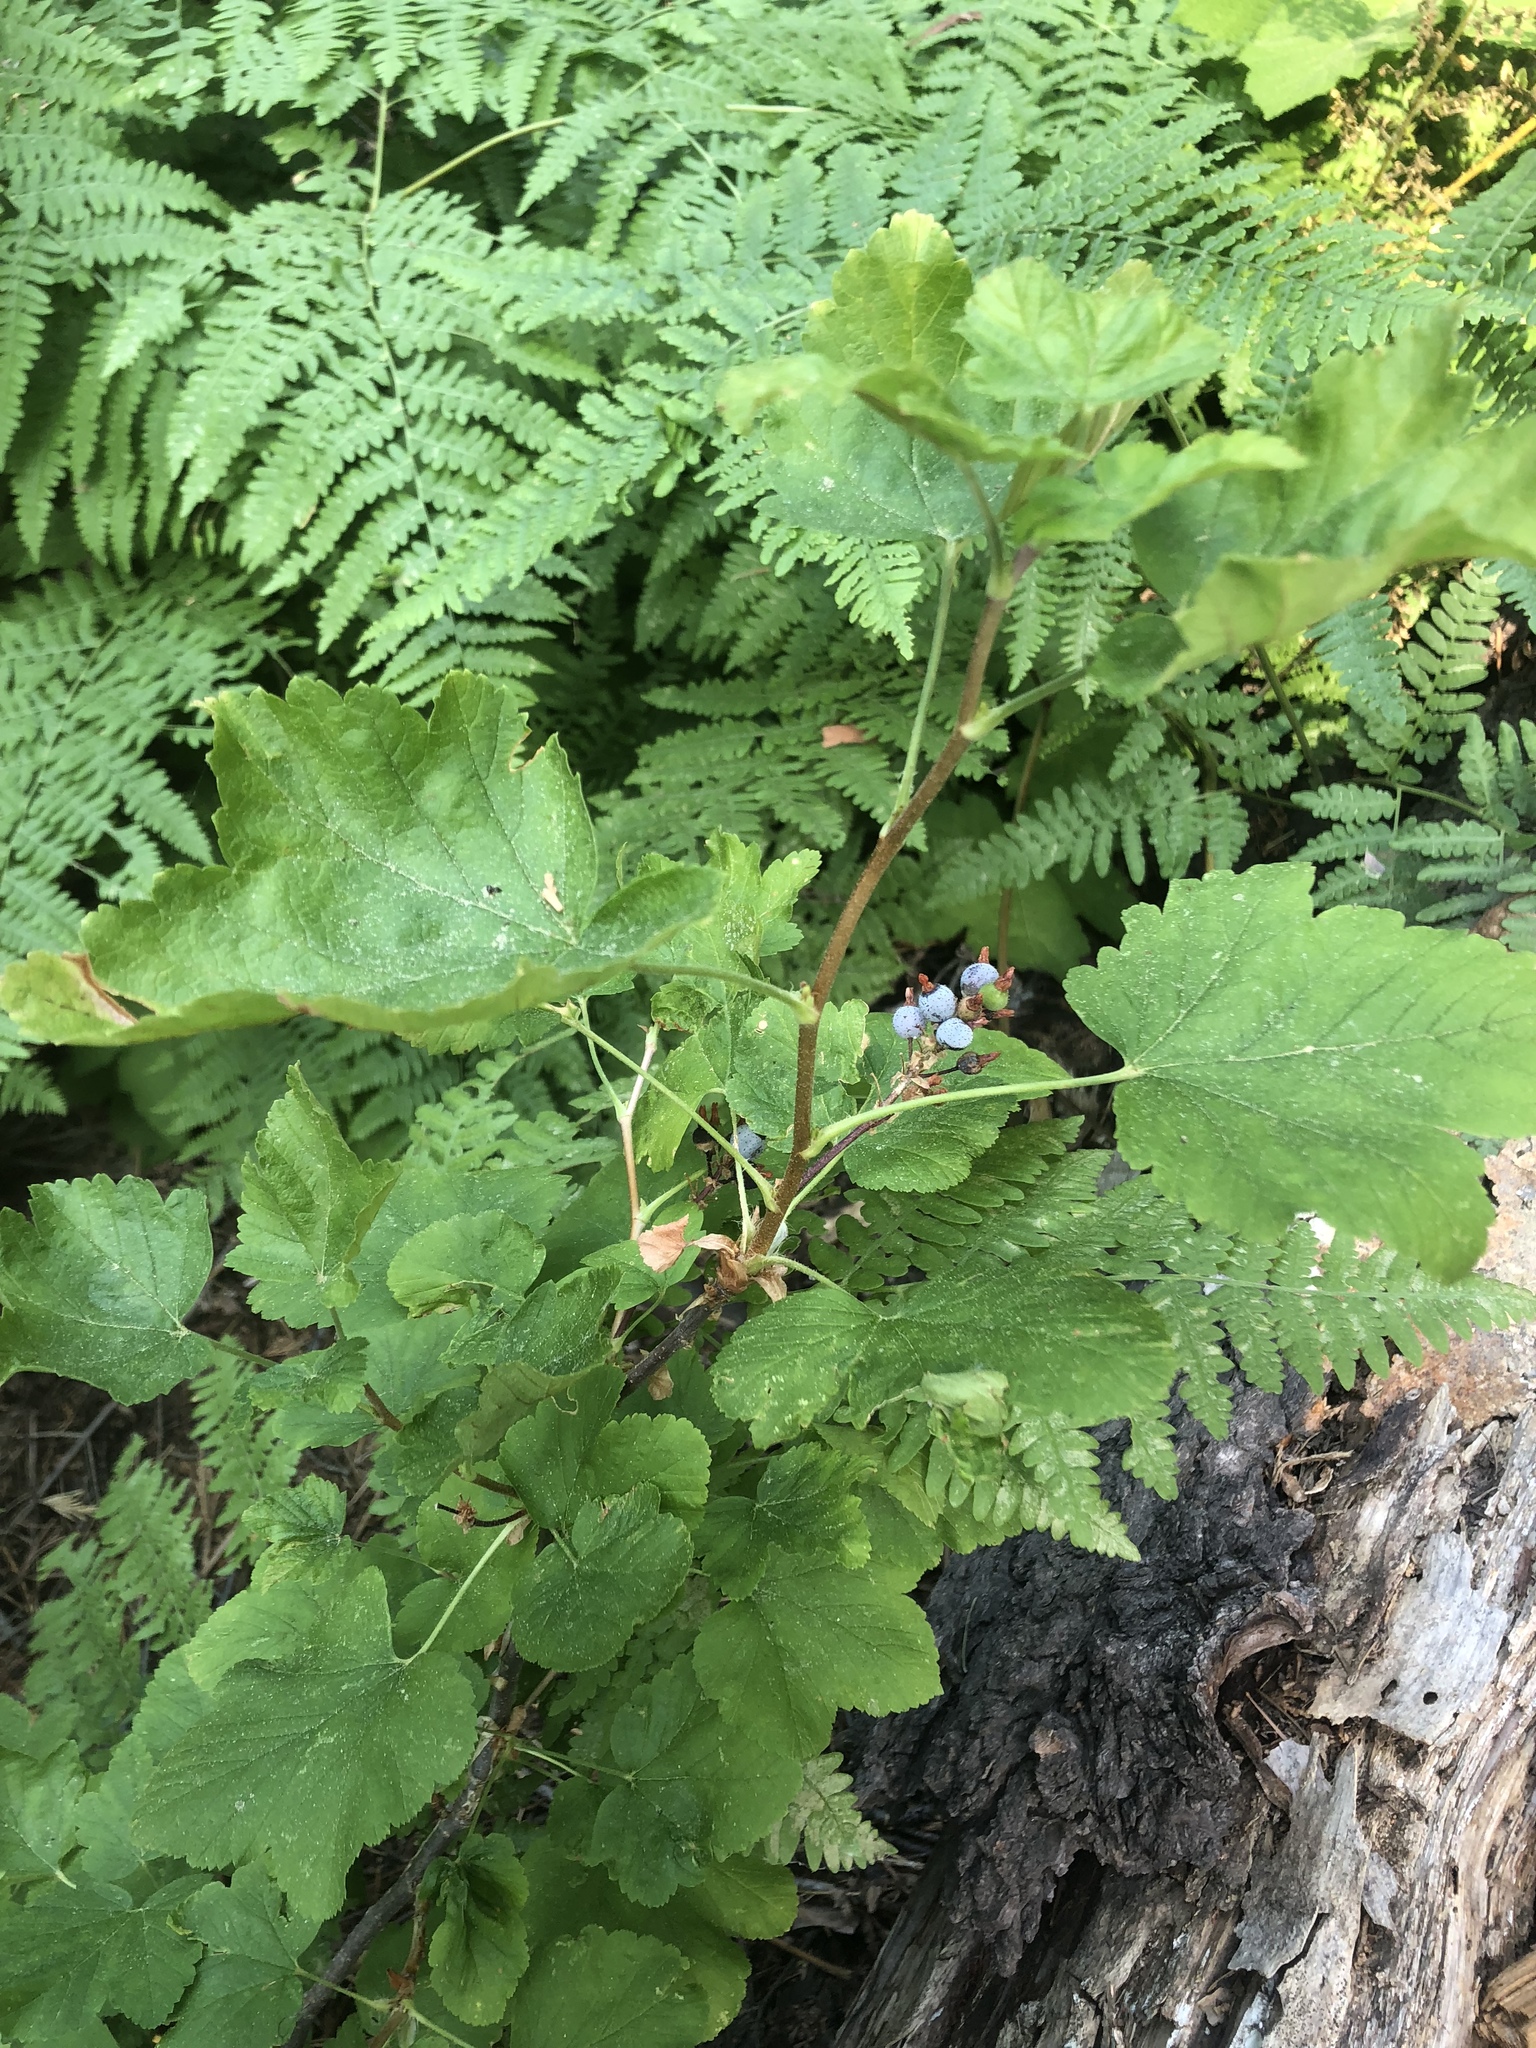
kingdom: Plantae
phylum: Tracheophyta
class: Magnoliopsida
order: Saxifragales
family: Grossulariaceae
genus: Ribes
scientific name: Ribes nevadense
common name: Mountain pink currant
